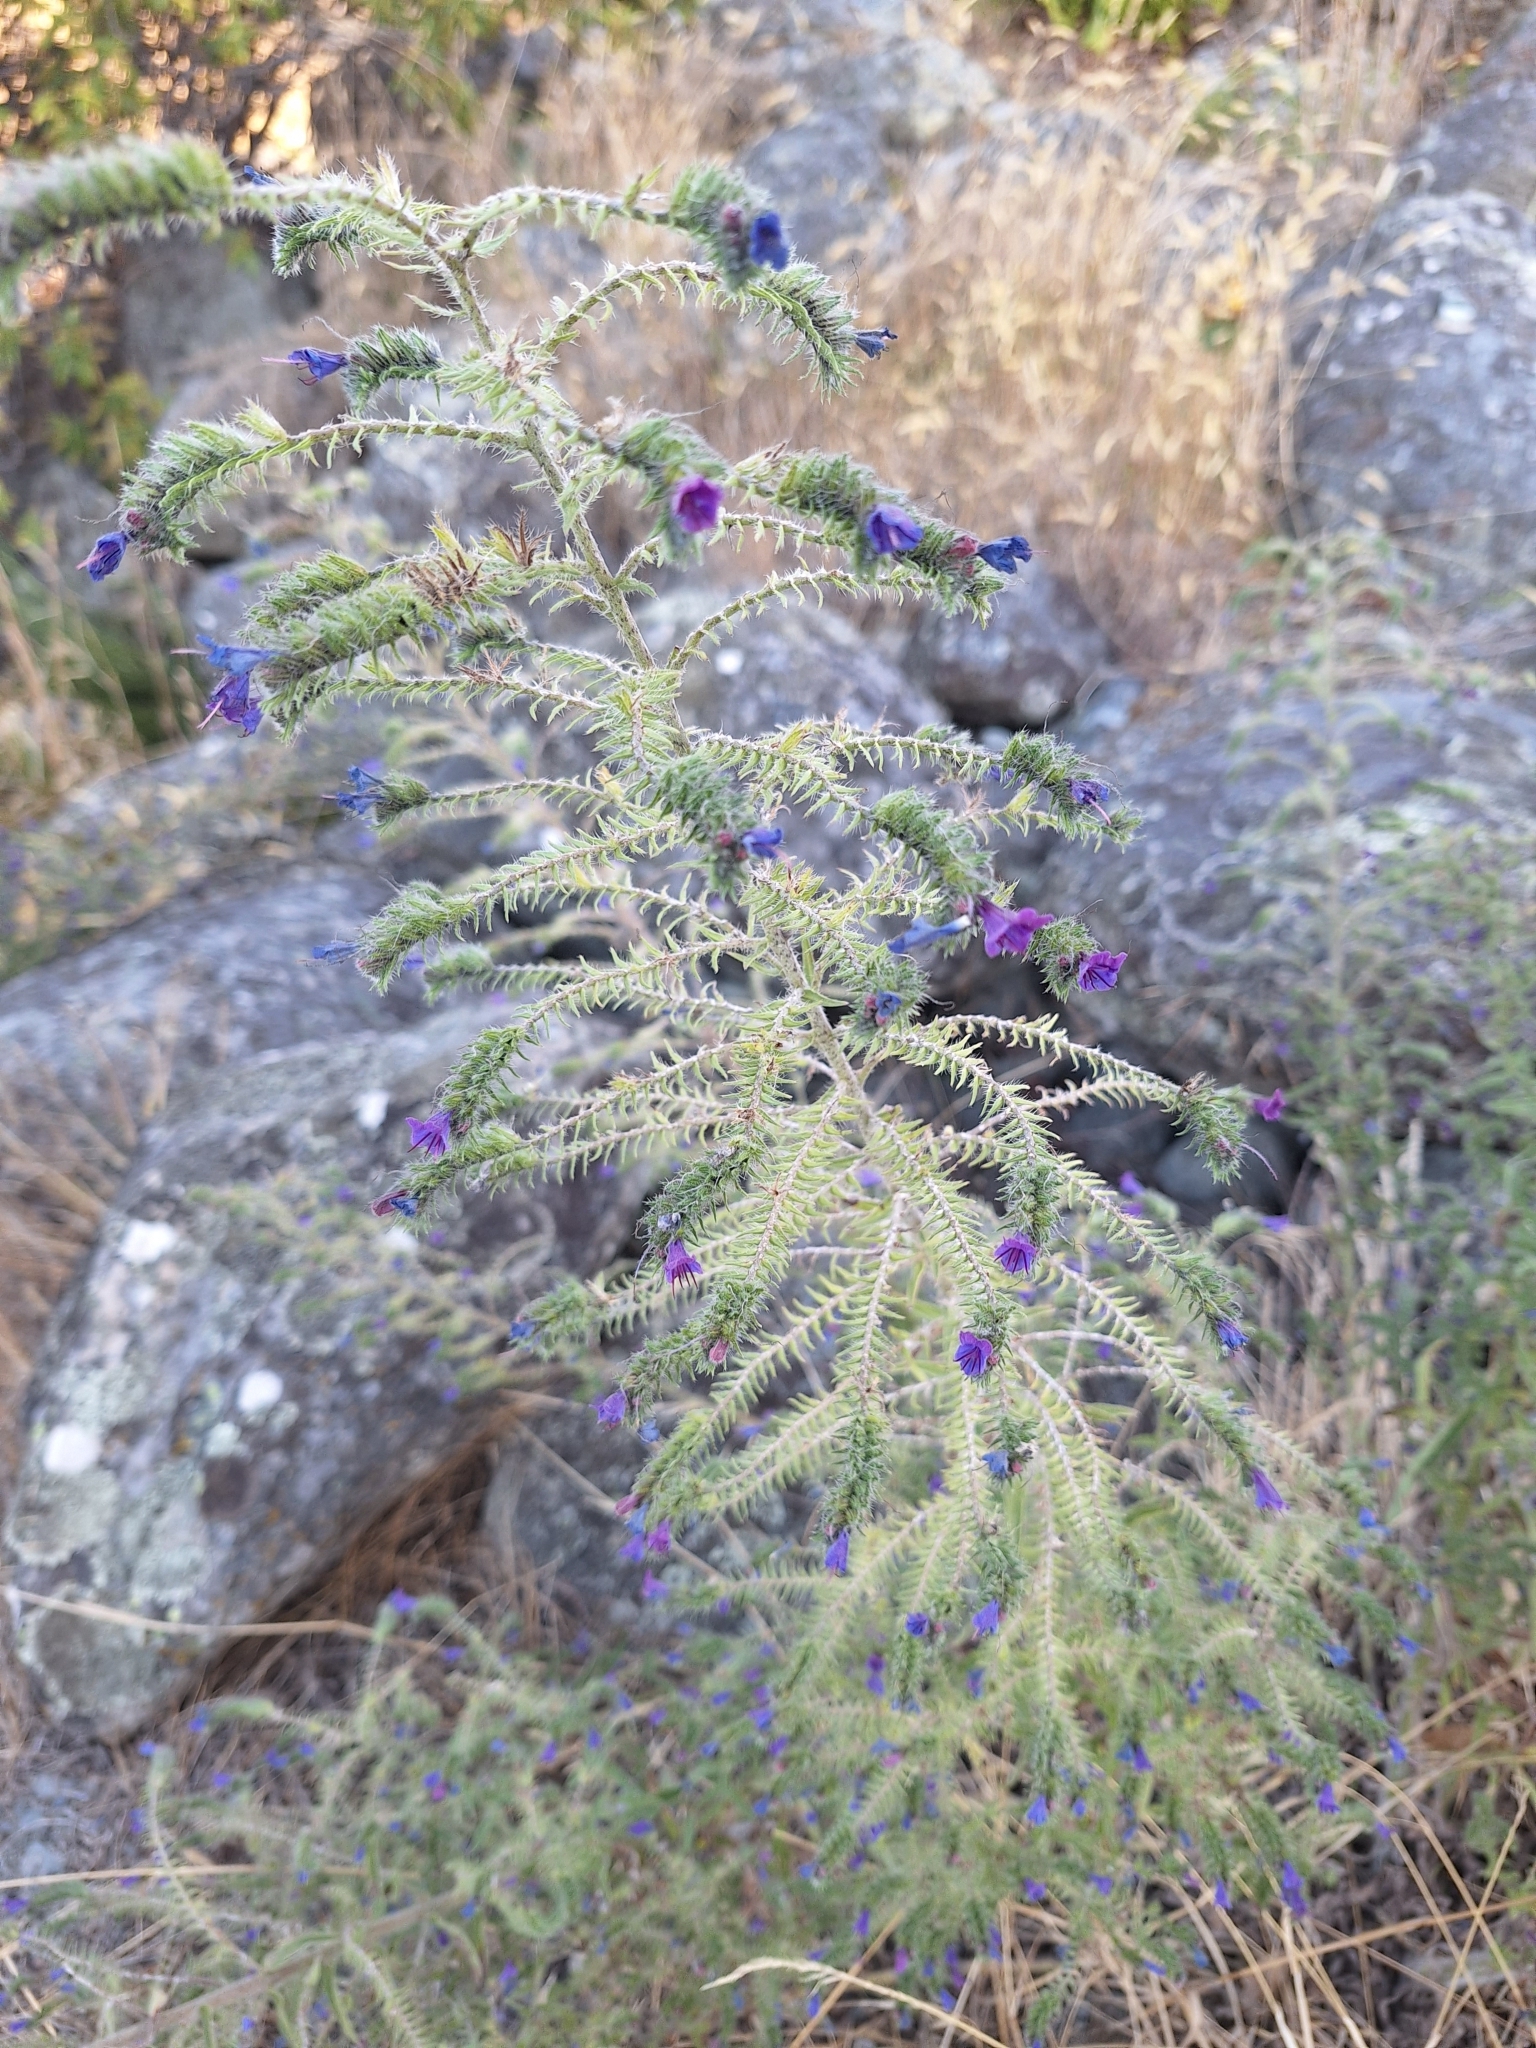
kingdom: Plantae
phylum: Tracheophyta
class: Magnoliopsida
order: Boraginales
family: Boraginaceae
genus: Echium
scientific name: Echium vulgare
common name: Common viper's bugloss
